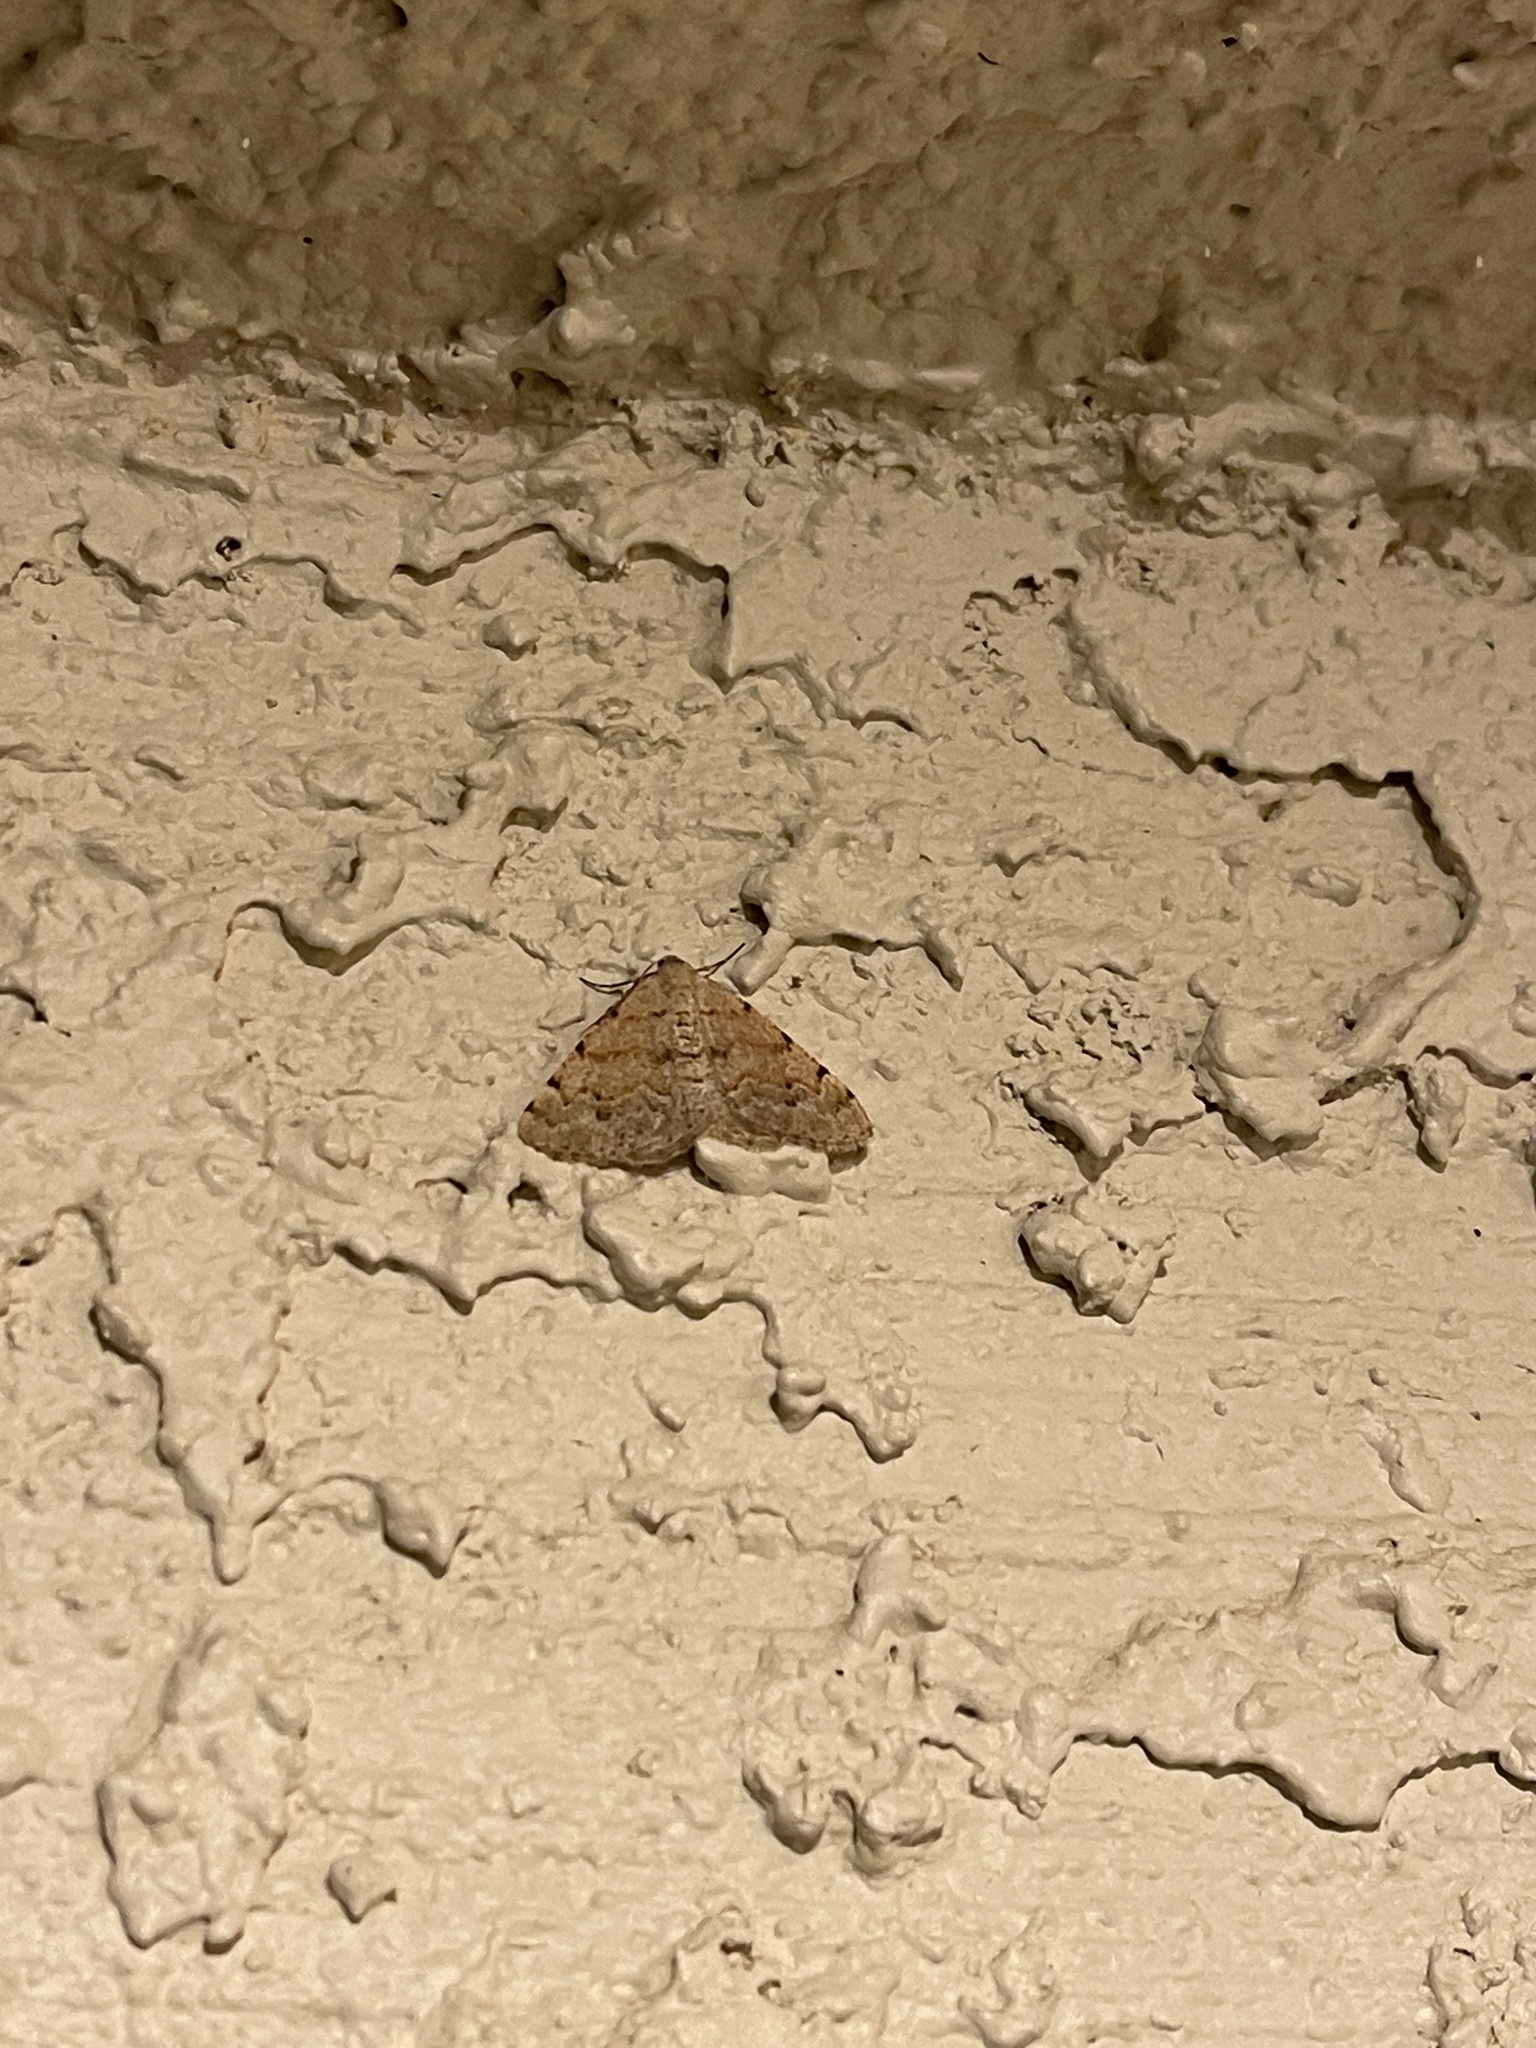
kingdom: Animalia
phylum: Arthropoda
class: Insecta
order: Lepidoptera
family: Geometridae
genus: Digrammia
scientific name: Digrammia colorata
